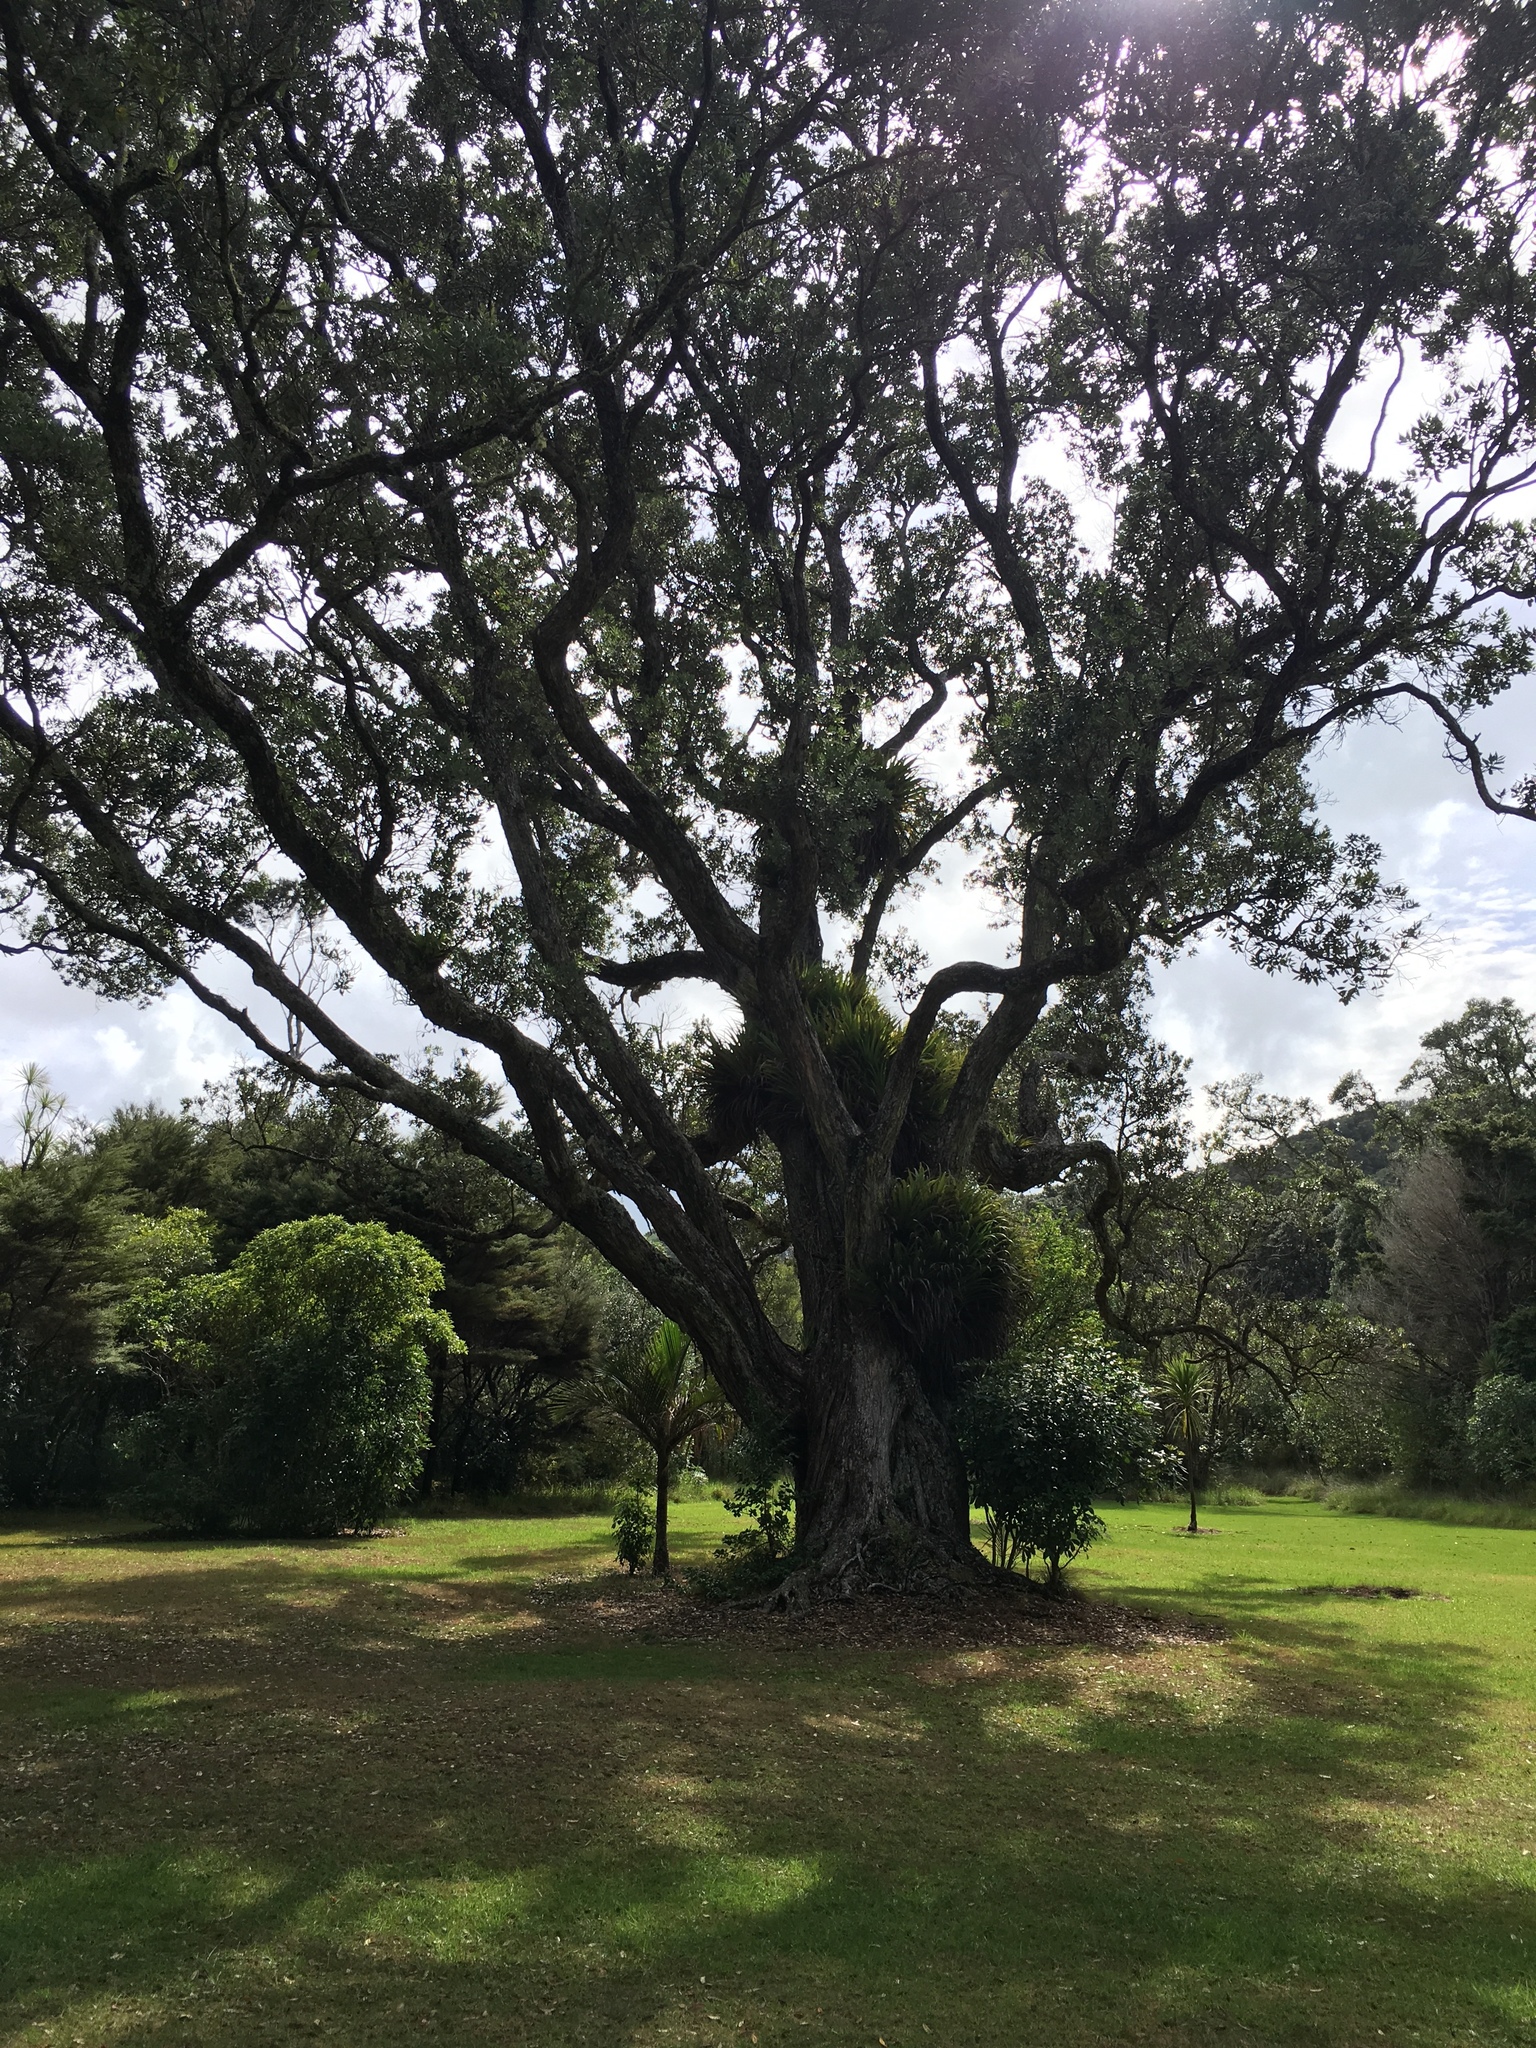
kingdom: Plantae
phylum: Tracheophyta
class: Magnoliopsida
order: Myrtales
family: Myrtaceae
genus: Metrosideros
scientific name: Metrosideros excelsa
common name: New zealand christmastree
